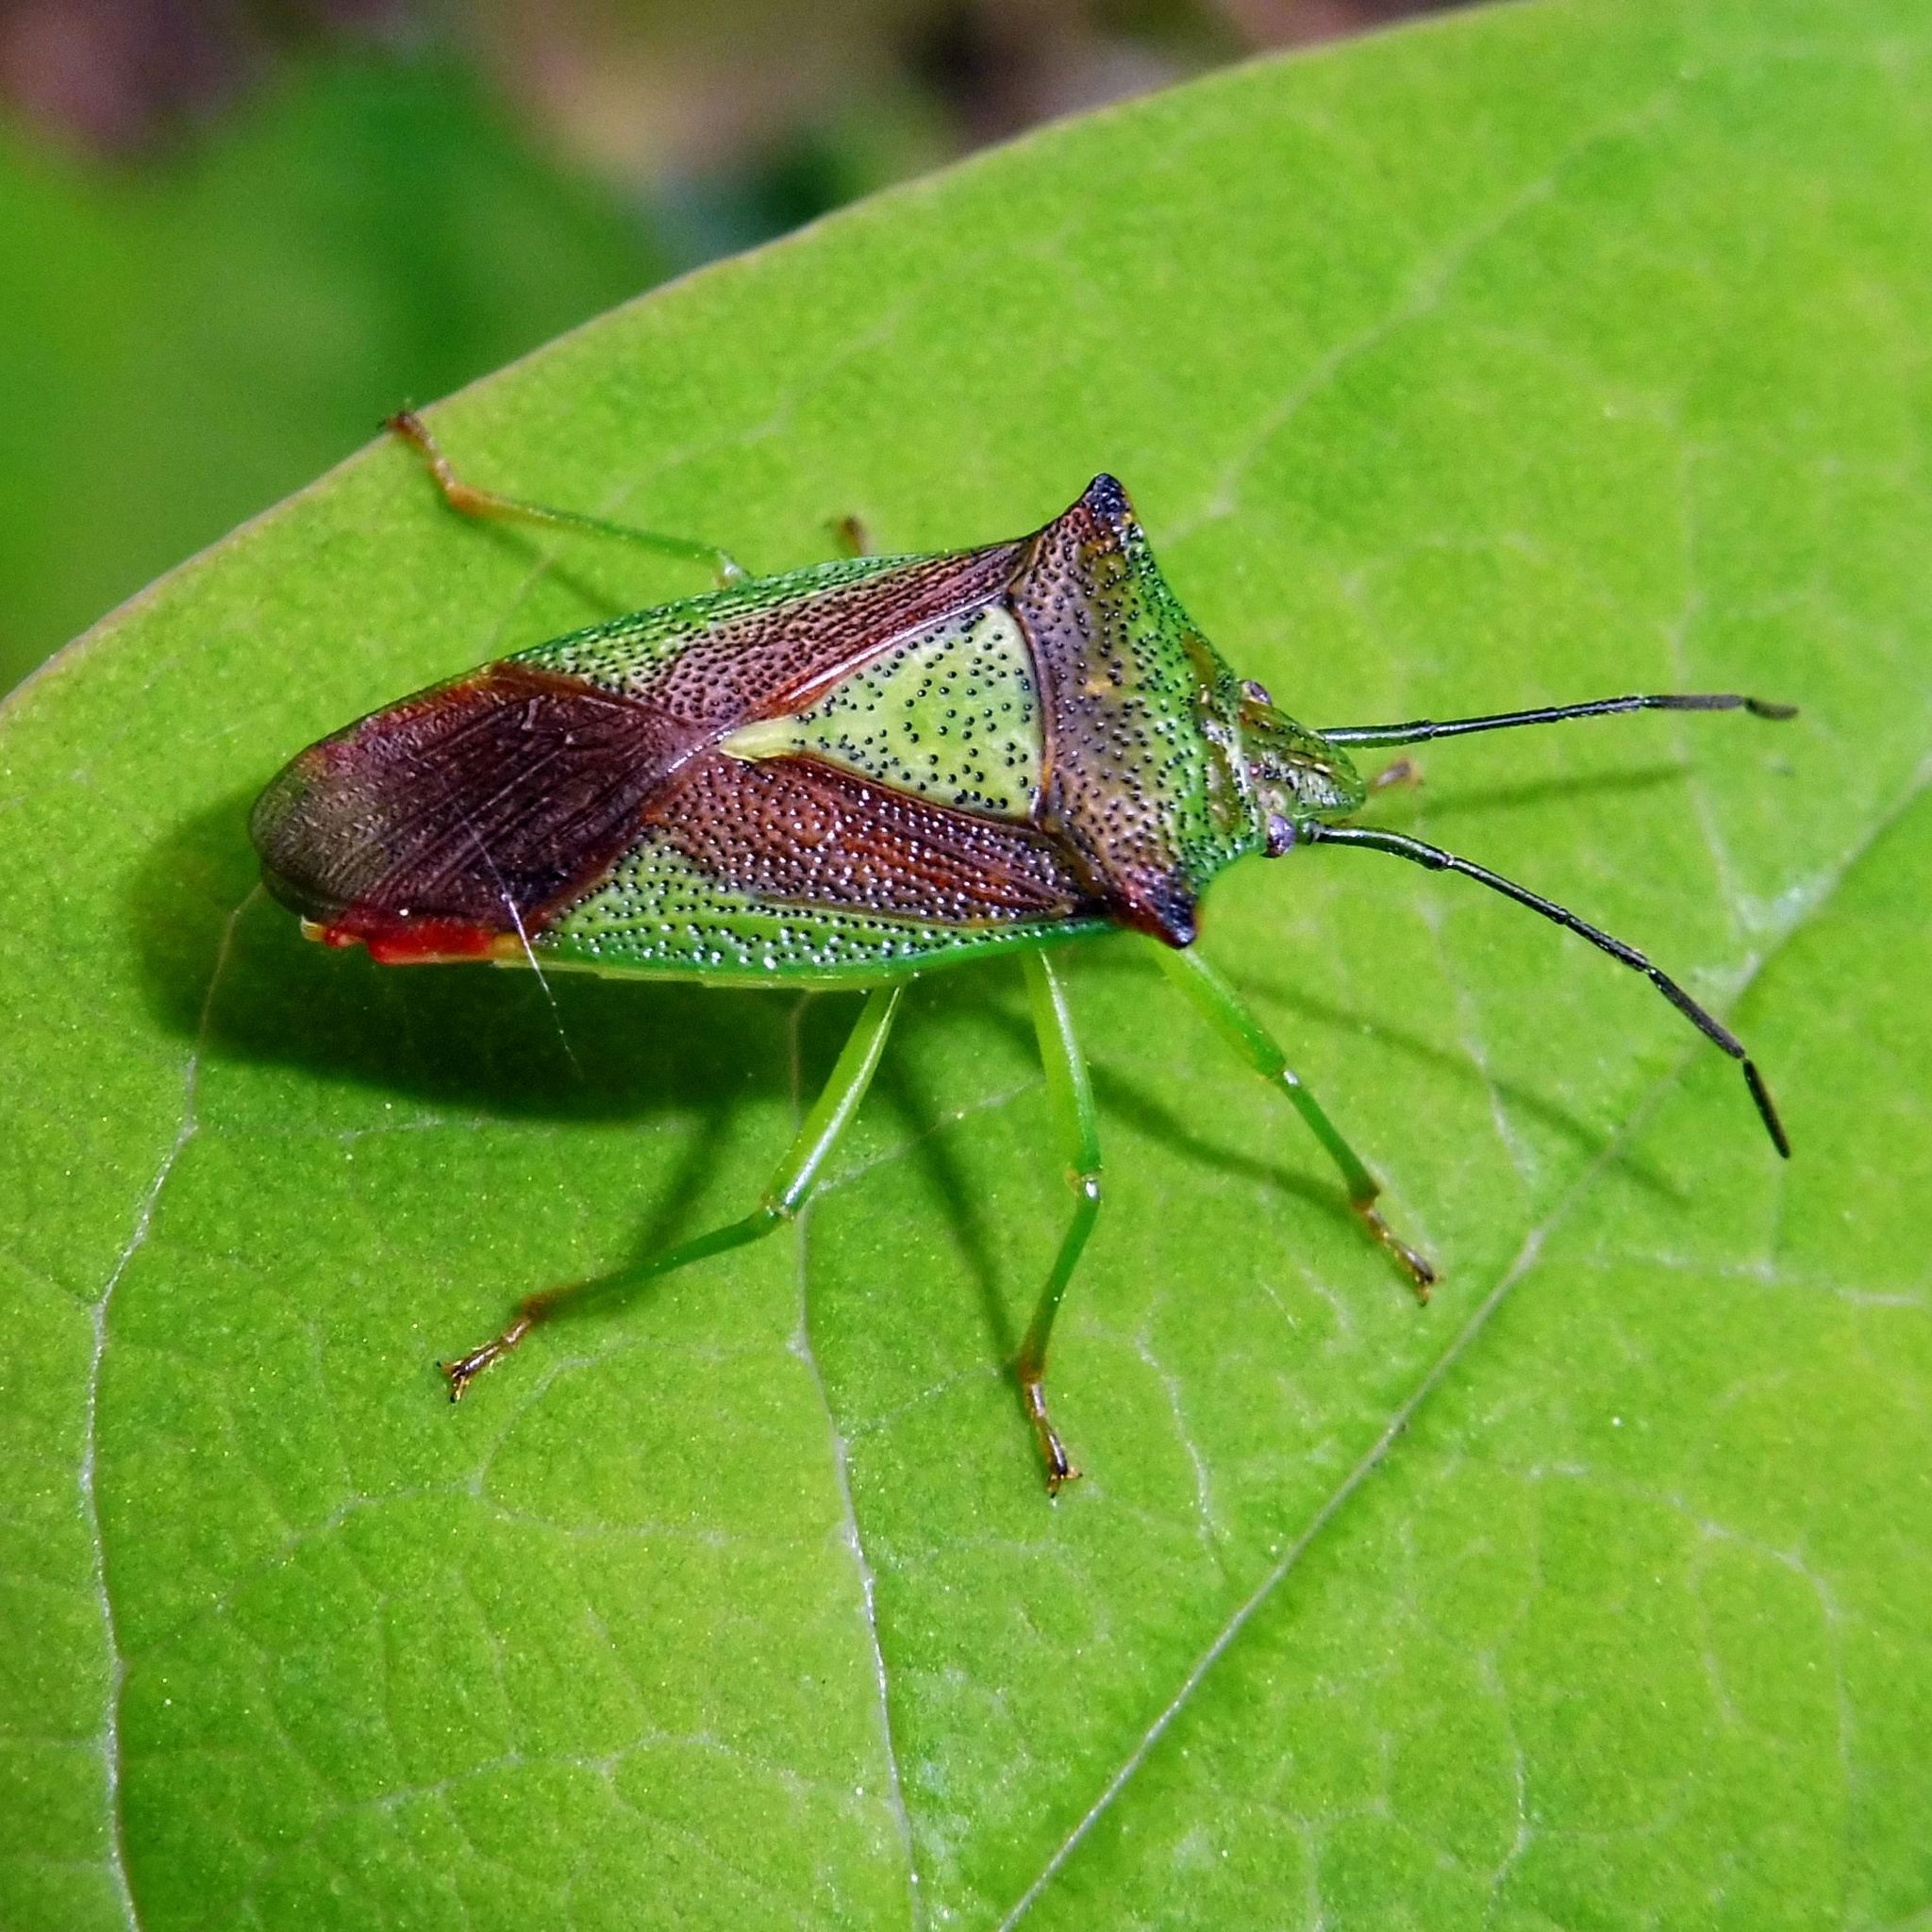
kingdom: Animalia
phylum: Arthropoda
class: Insecta
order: Hemiptera
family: Acanthosomatidae
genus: Acanthosoma
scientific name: Acanthosoma haemorrhoidale
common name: Hawthorn shieldbug
